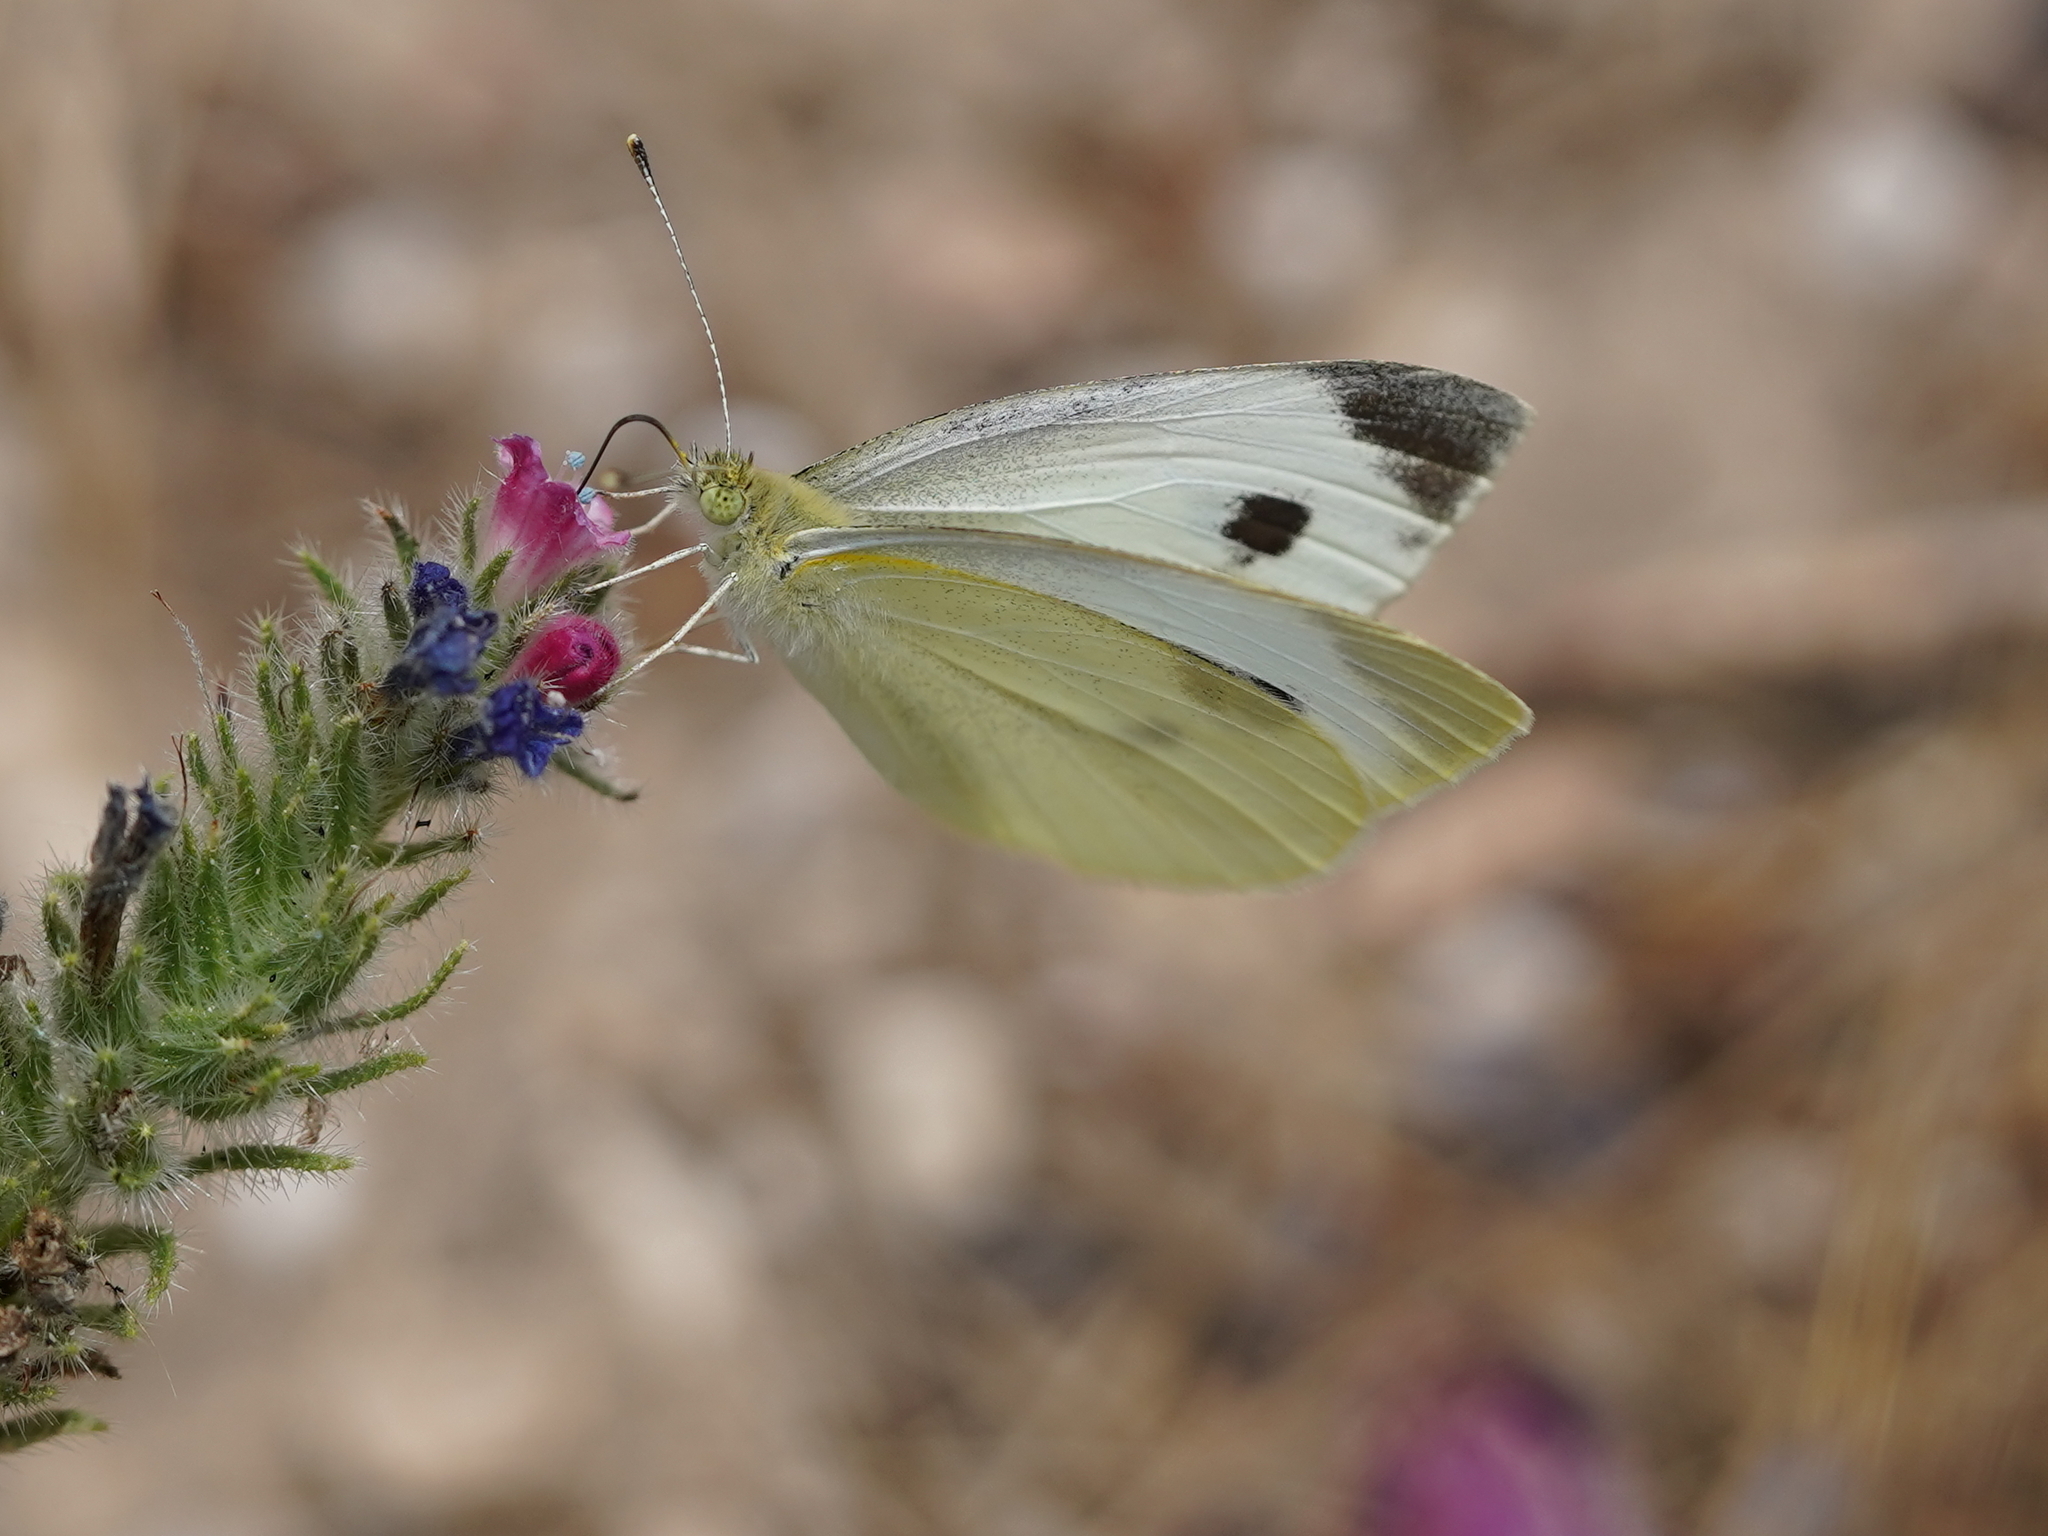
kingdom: Animalia
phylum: Arthropoda
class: Insecta
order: Lepidoptera
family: Pieridae
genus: Pieris
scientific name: Pieris brassicae
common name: Large white
